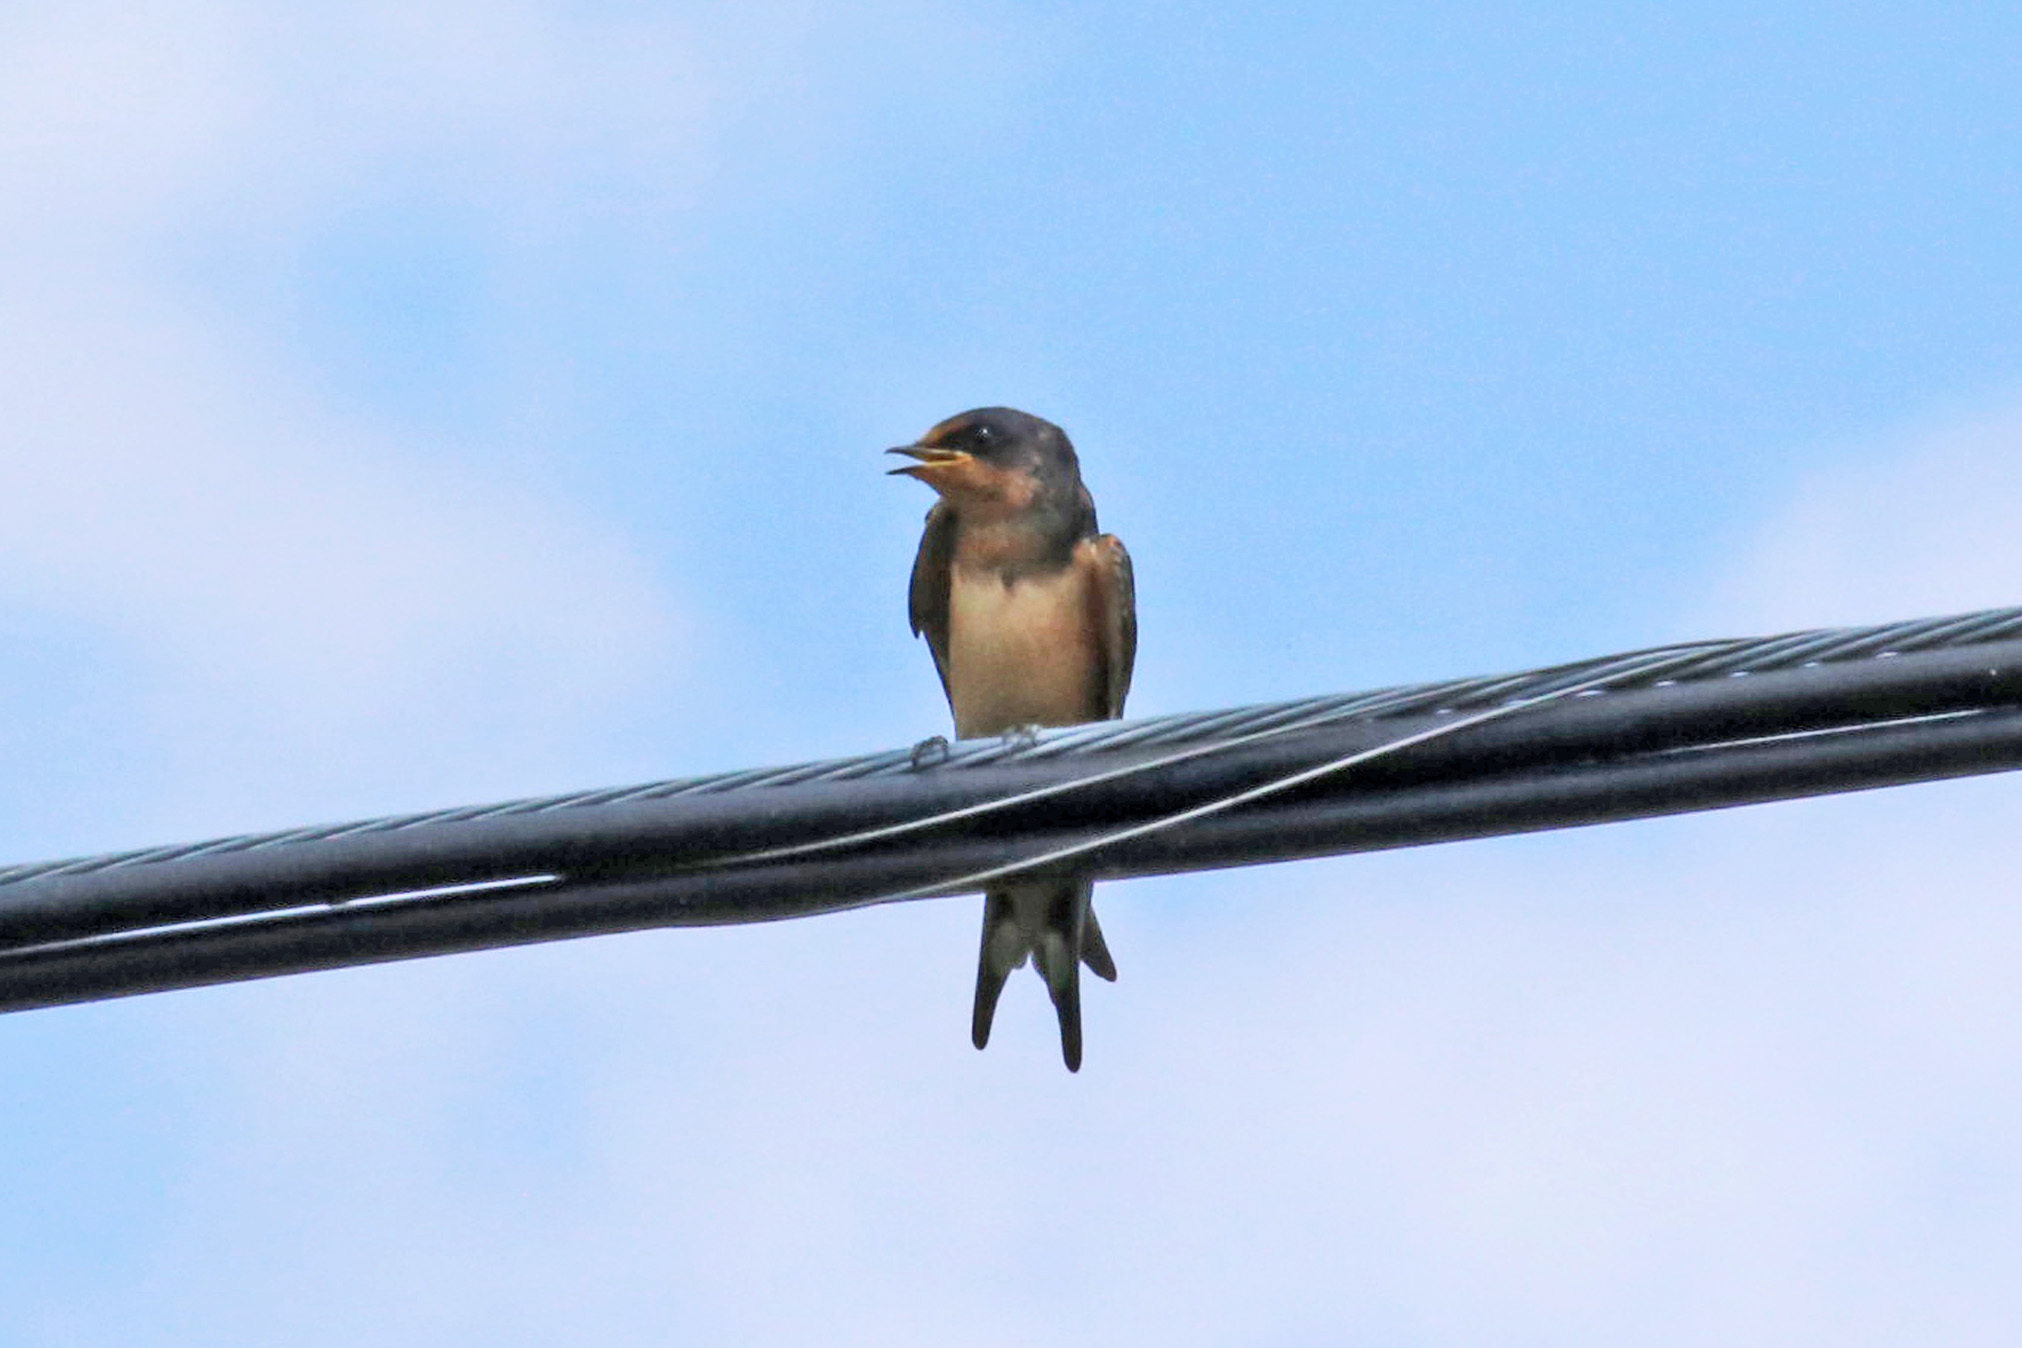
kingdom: Animalia
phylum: Chordata
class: Aves
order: Passeriformes
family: Hirundinidae
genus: Hirundo
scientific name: Hirundo rustica
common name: Barn swallow
